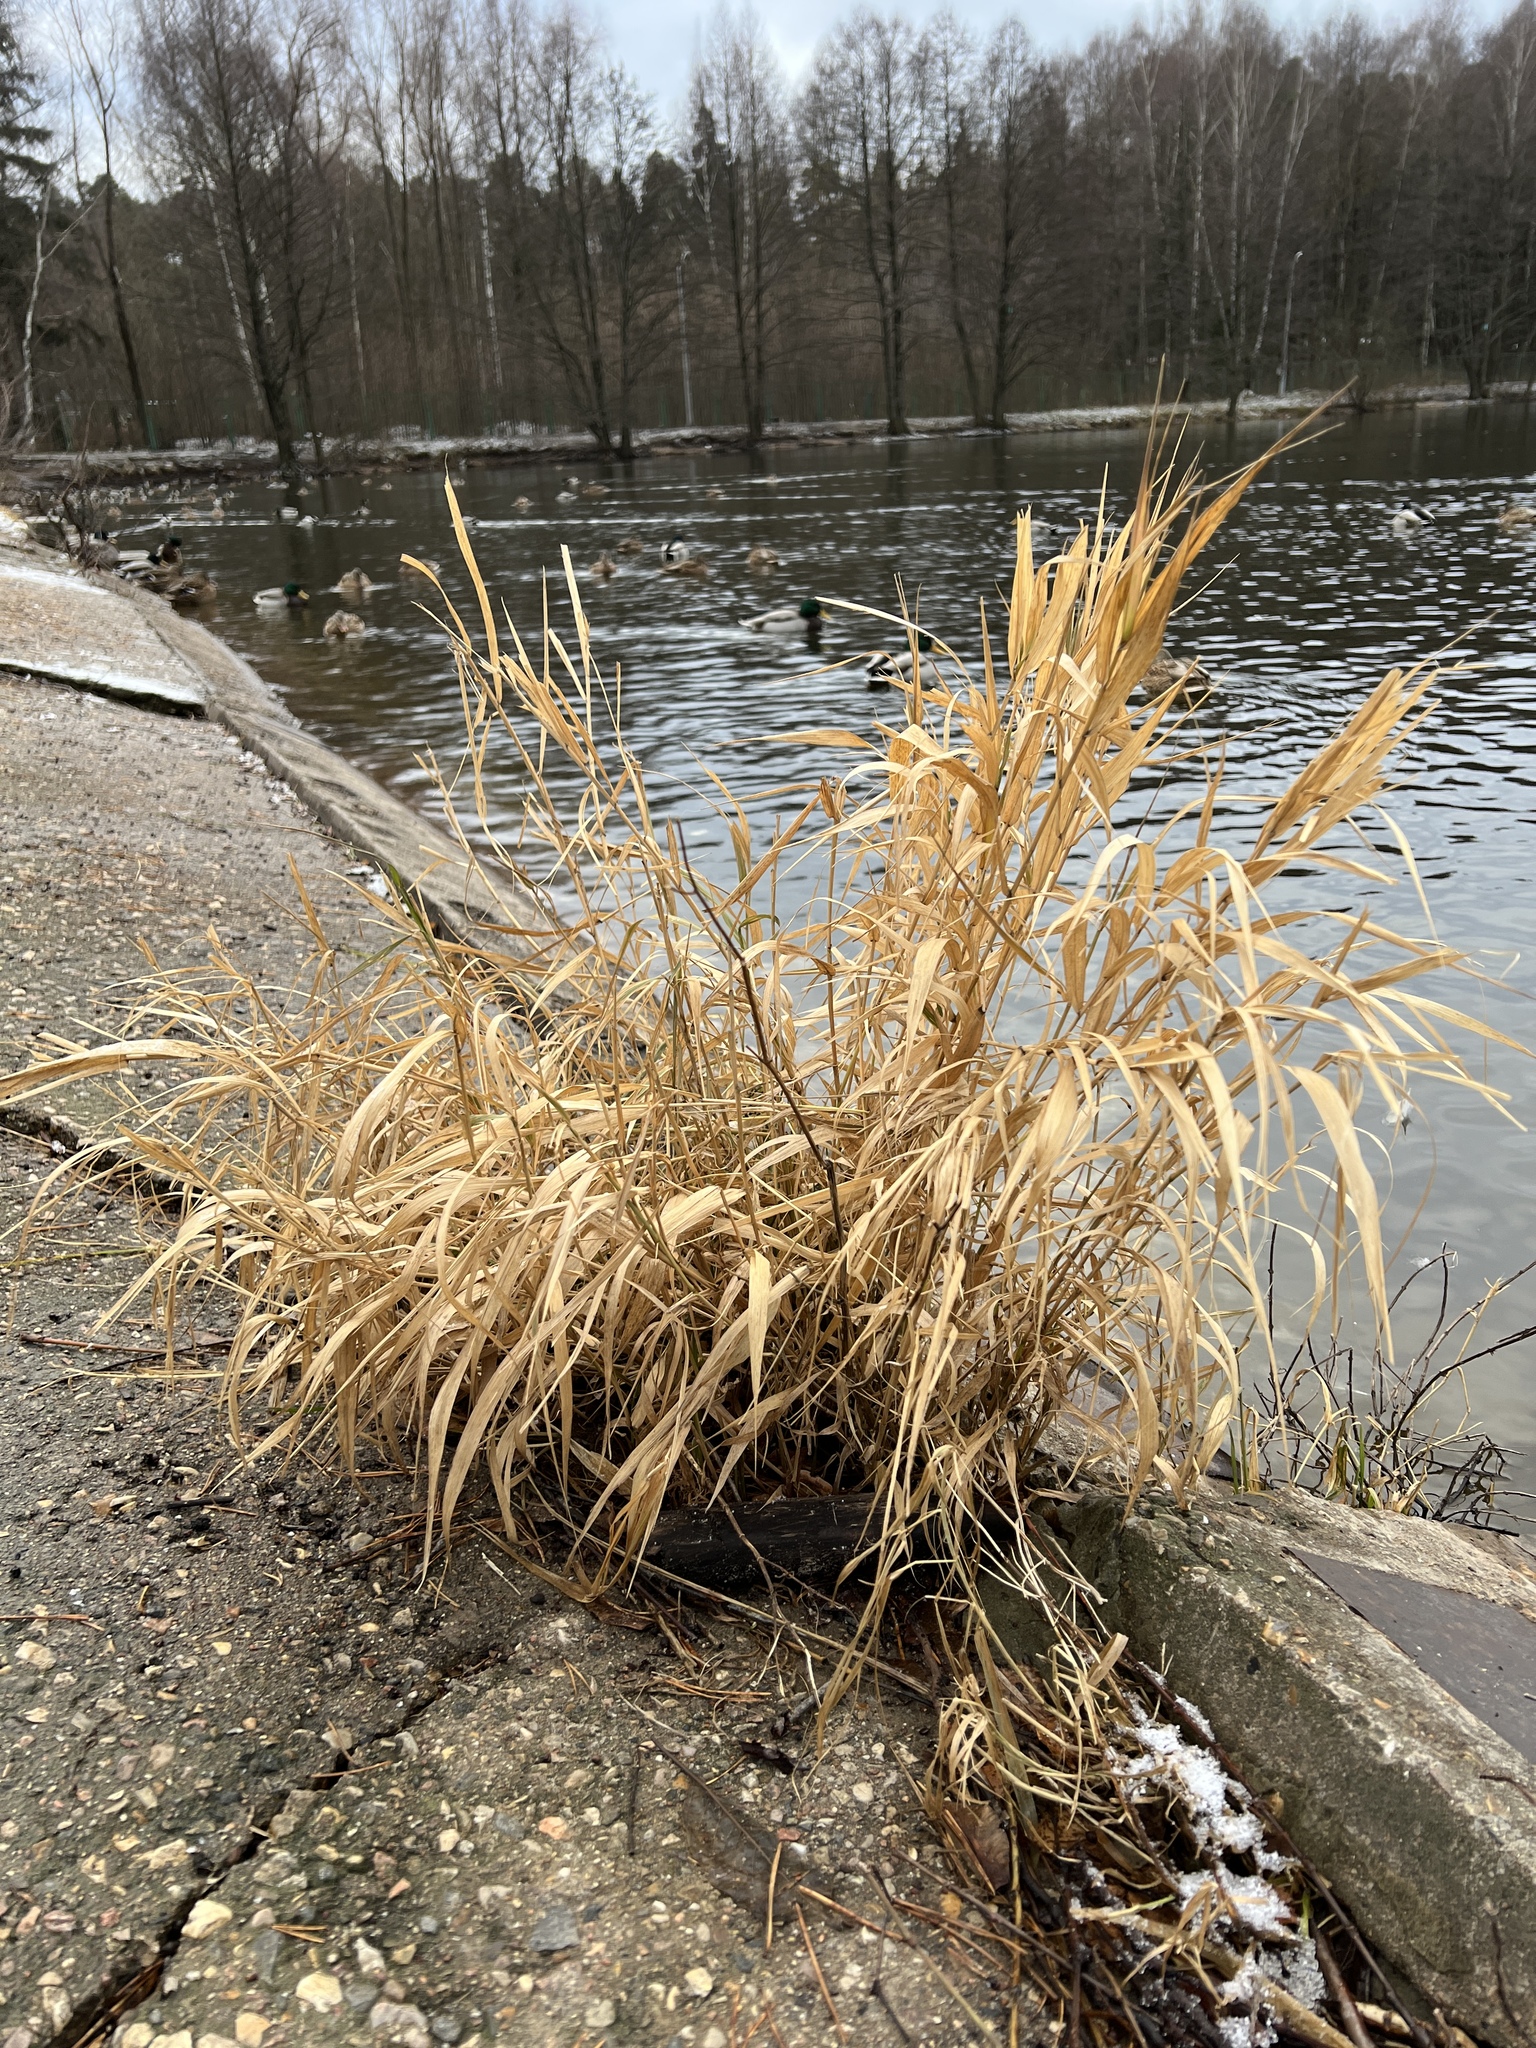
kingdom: Plantae
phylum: Tracheophyta
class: Liliopsida
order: Poales
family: Poaceae
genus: Phragmites
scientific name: Phragmites australis
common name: Common reed
